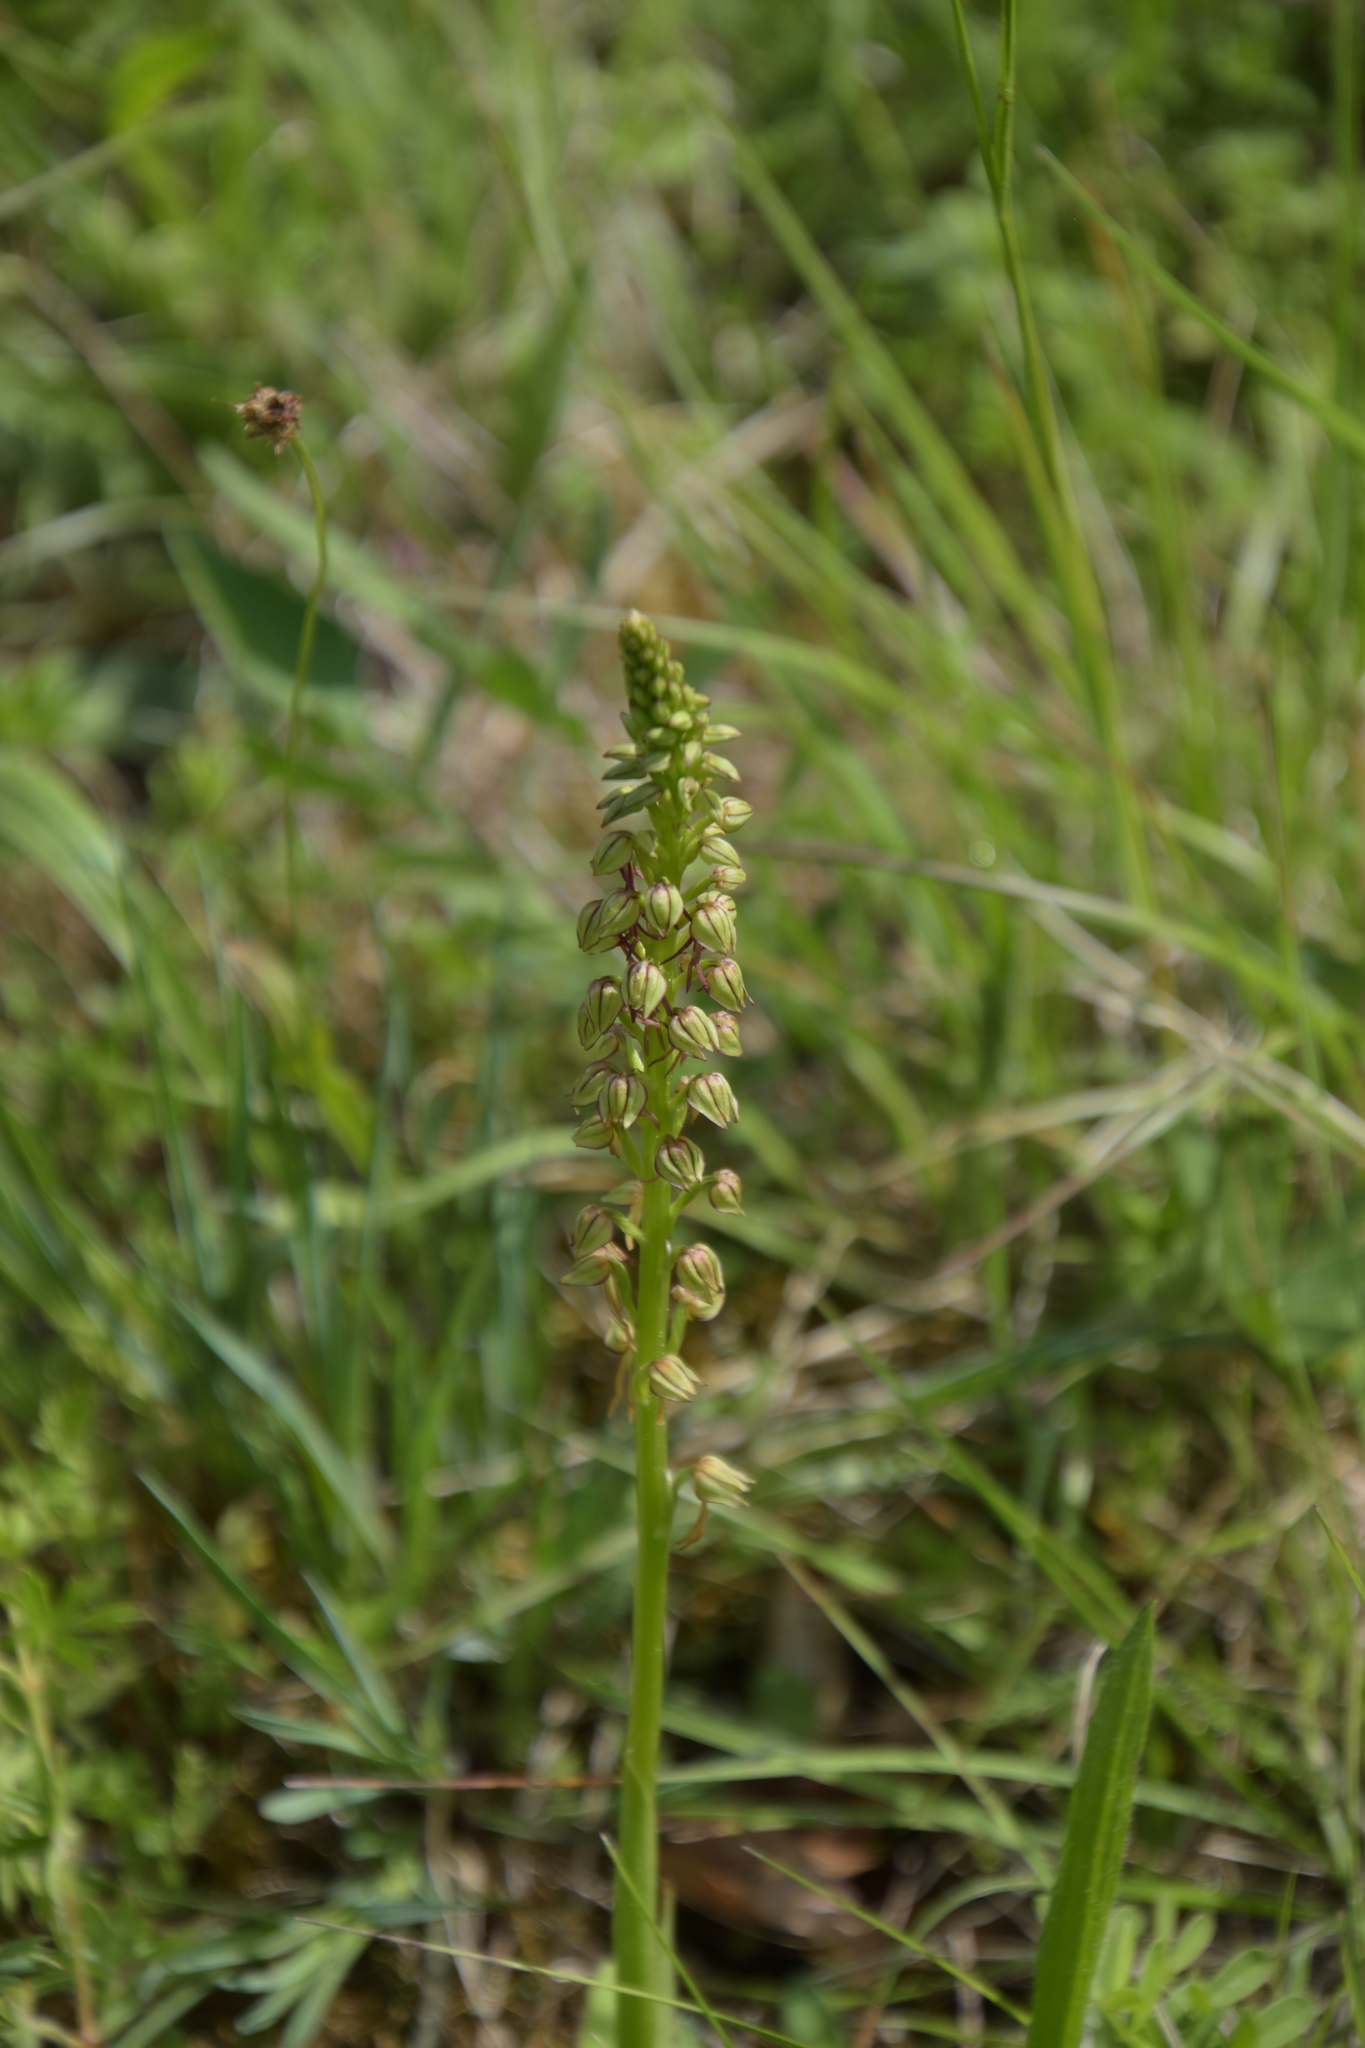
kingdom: Plantae
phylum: Tracheophyta
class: Liliopsida
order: Asparagales
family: Orchidaceae
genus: Orchis
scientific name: Orchis anthropophora
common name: Man orchid
